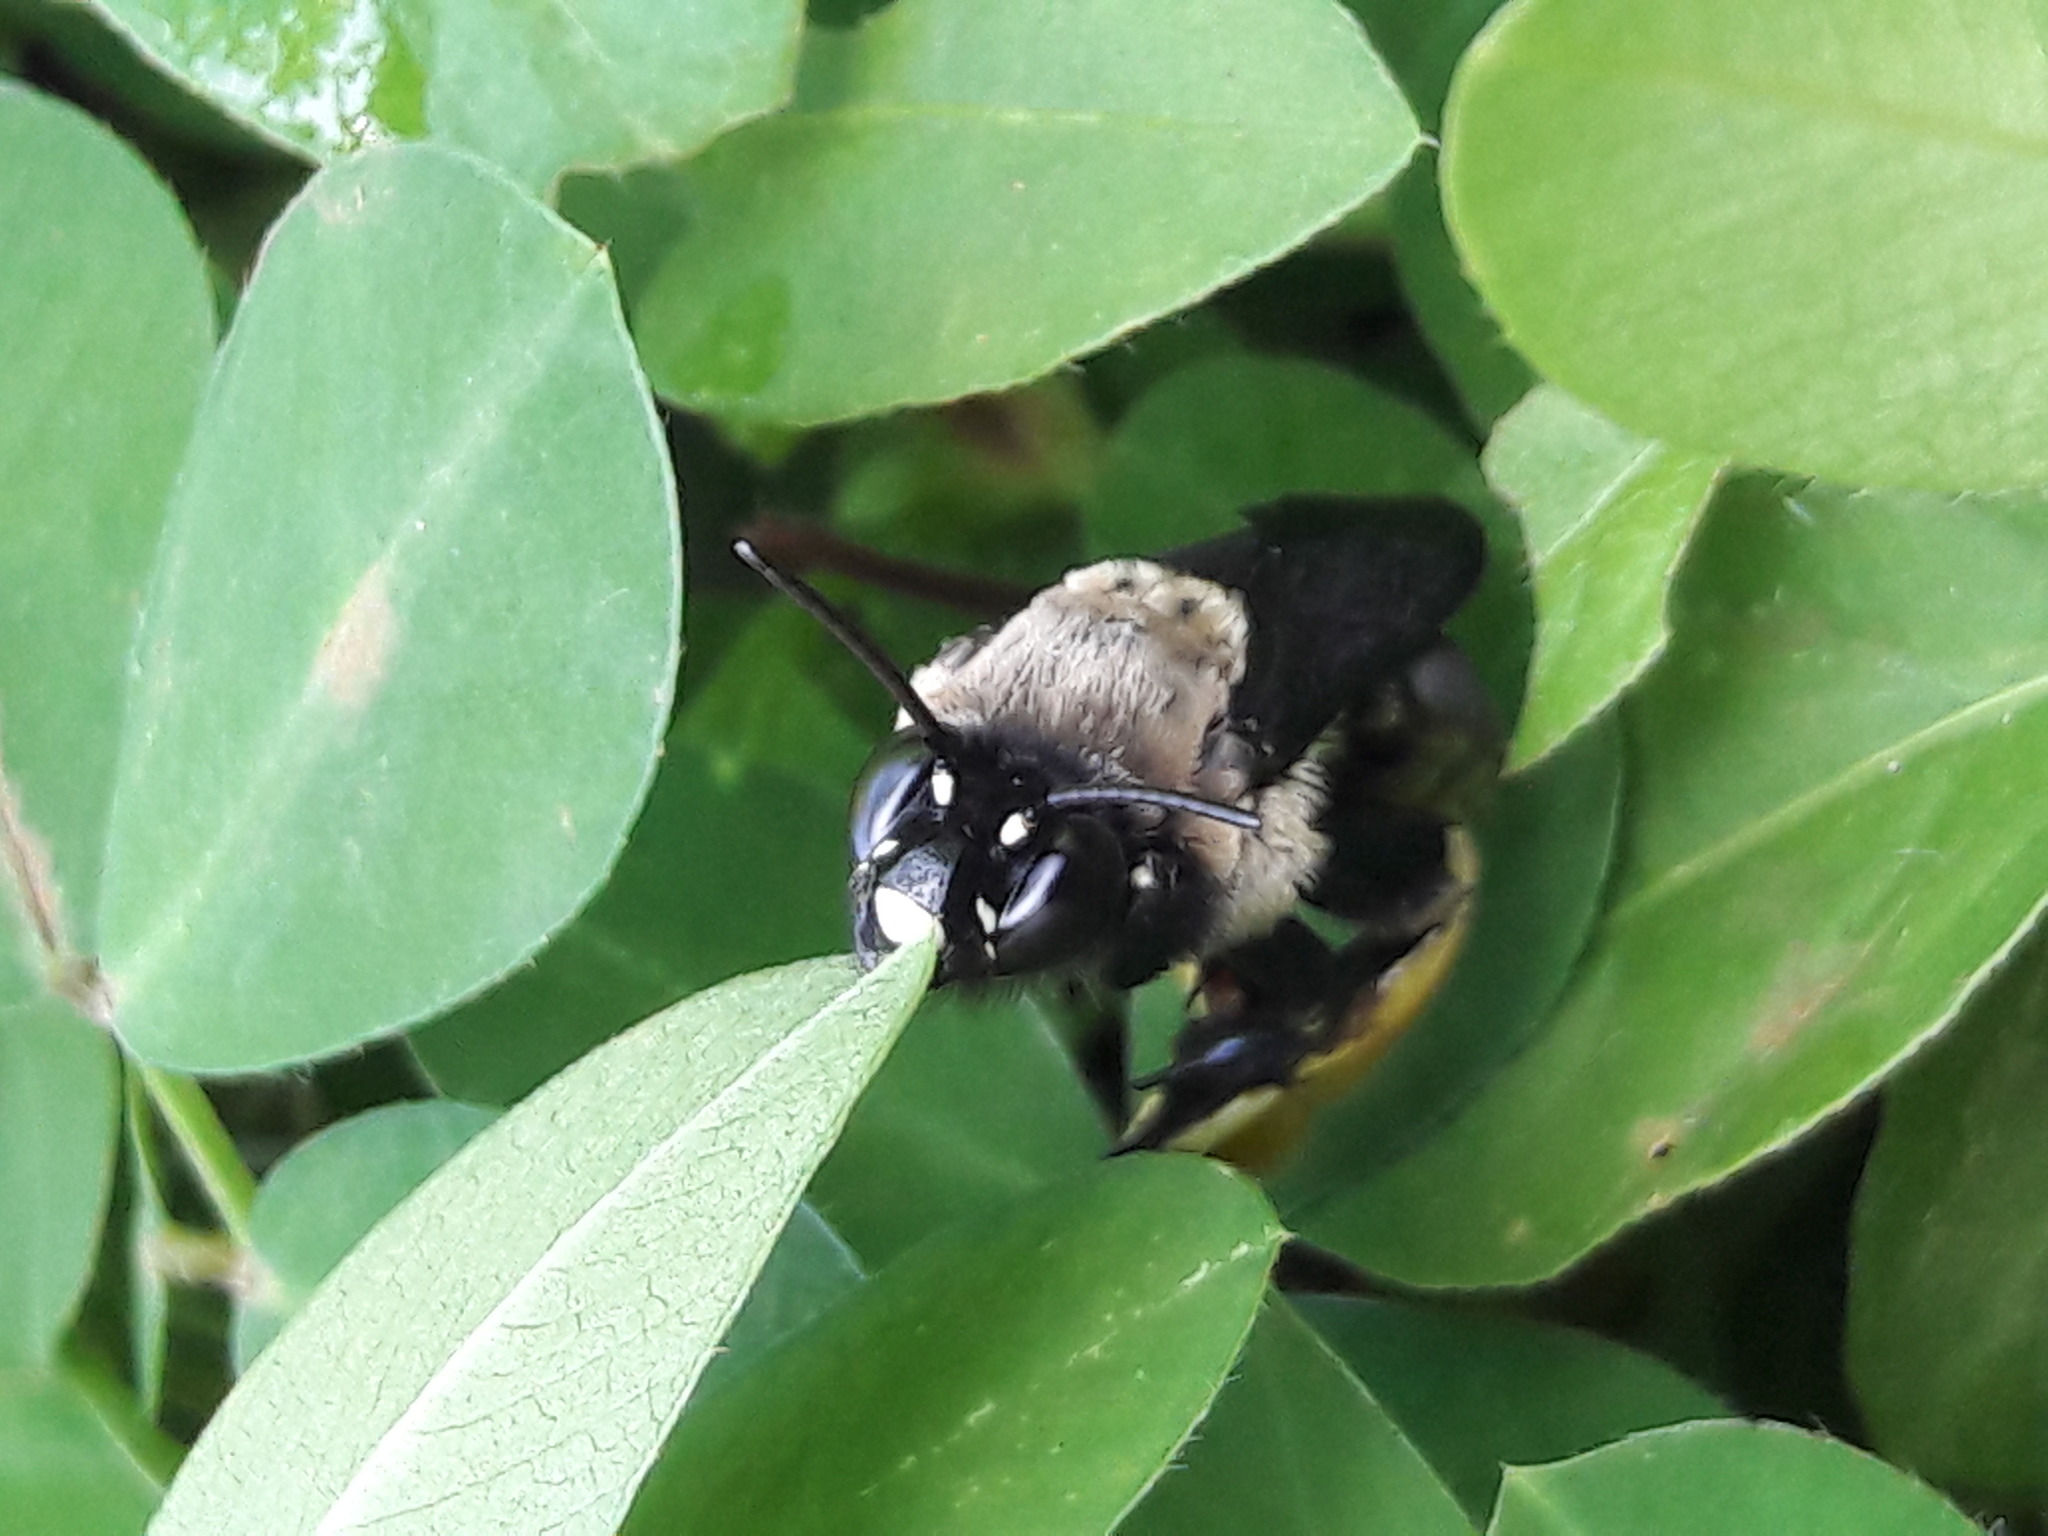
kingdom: Animalia
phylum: Arthropoda
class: Insecta
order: Hymenoptera
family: Apidae
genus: Epicharis
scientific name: Epicharis flava
